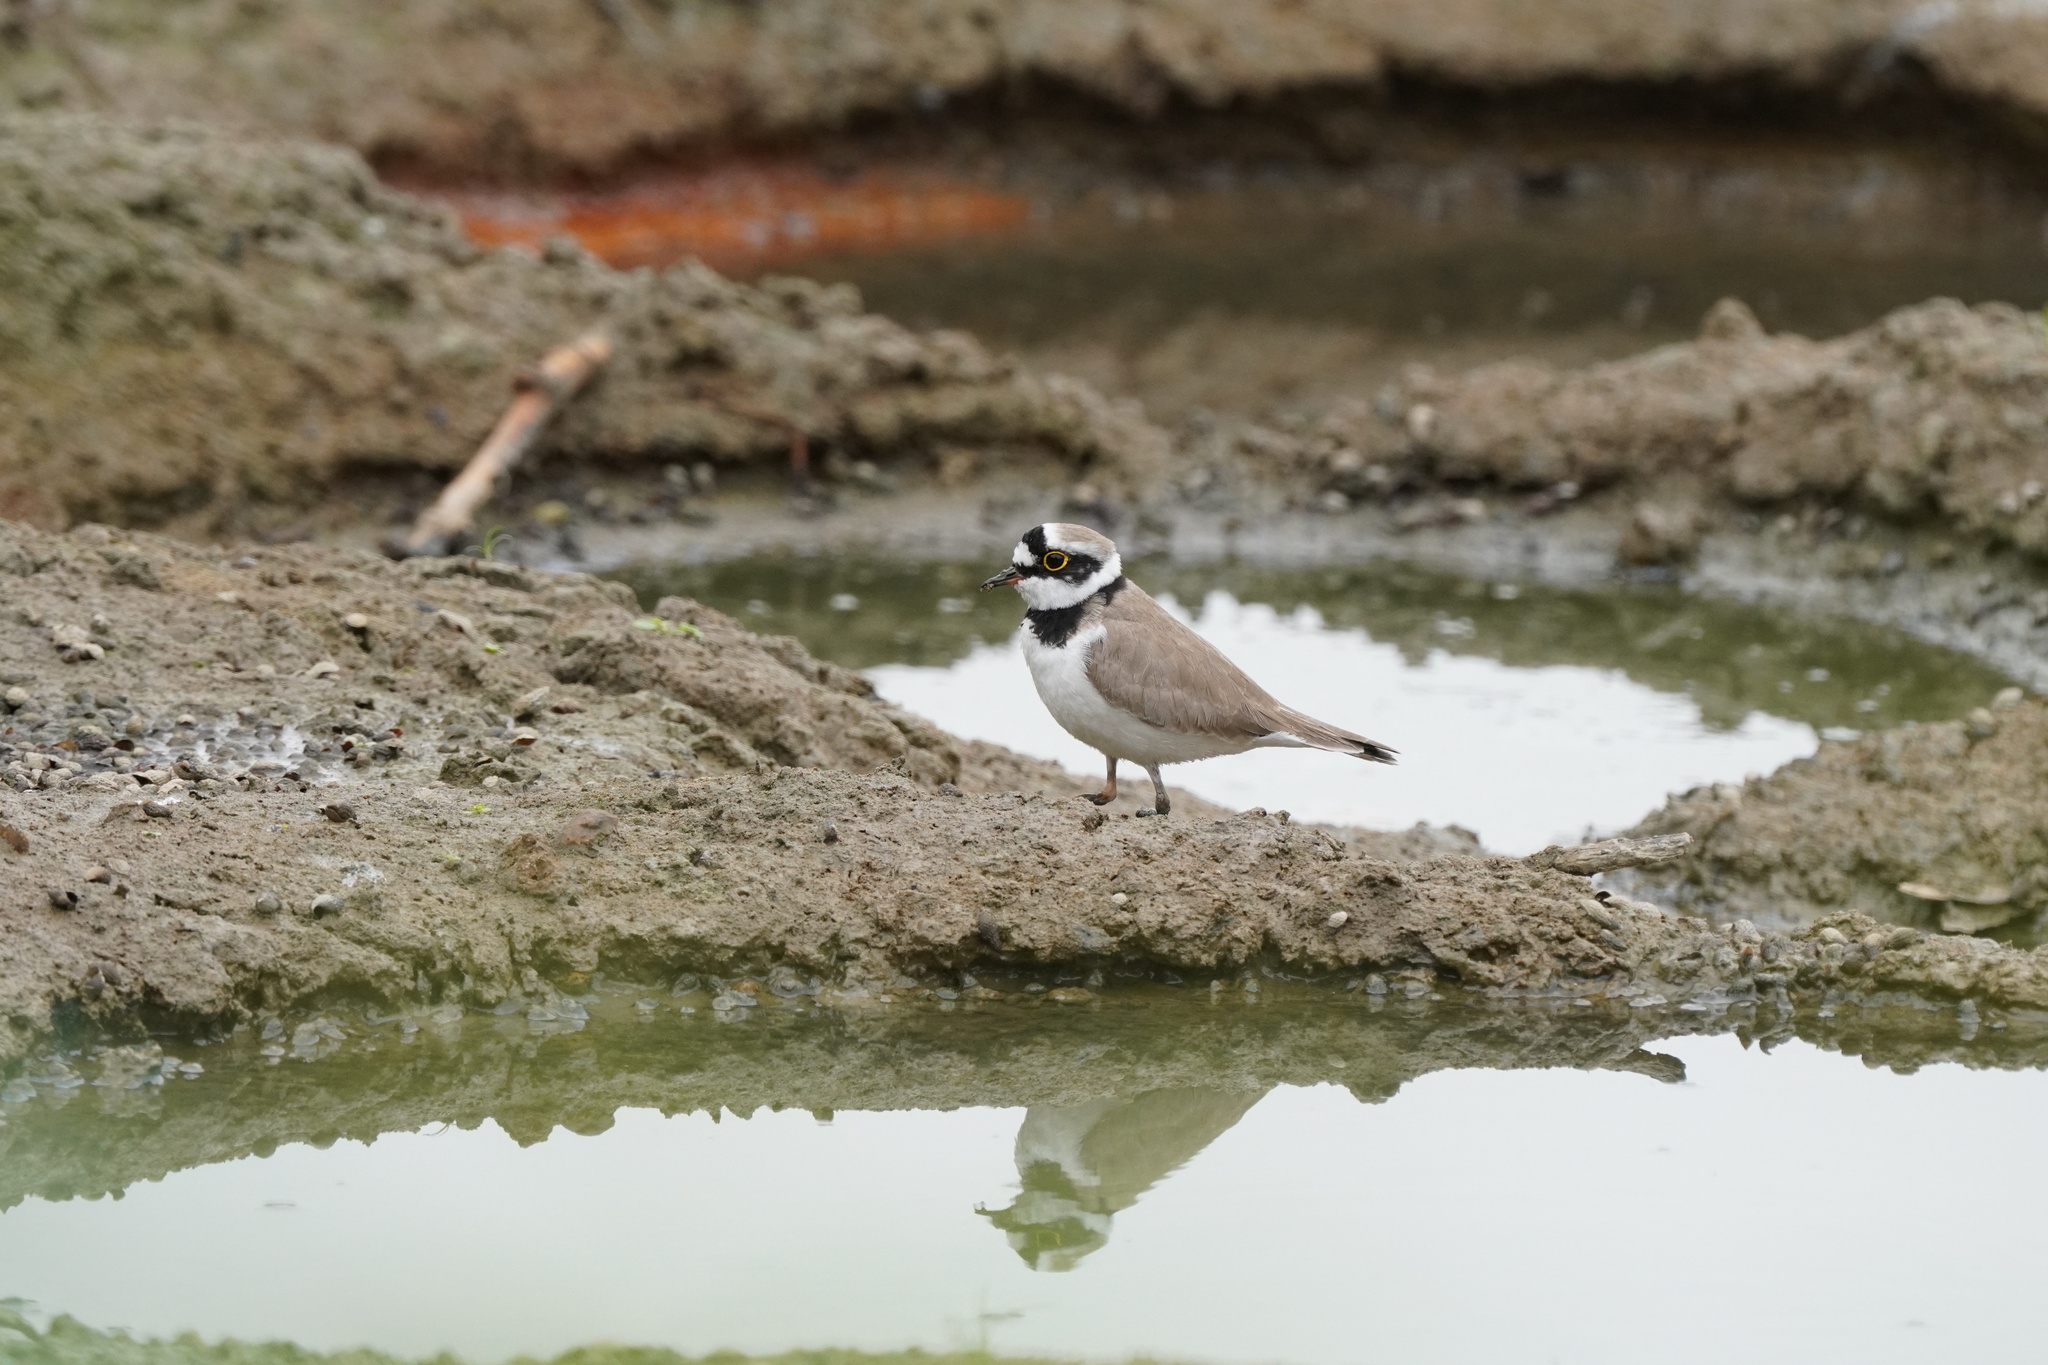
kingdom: Animalia
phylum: Chordata
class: Aves
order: Charadriiformes
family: Charadriidae
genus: Charadrius
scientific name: Charadrius dubius
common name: Little ringed plover
